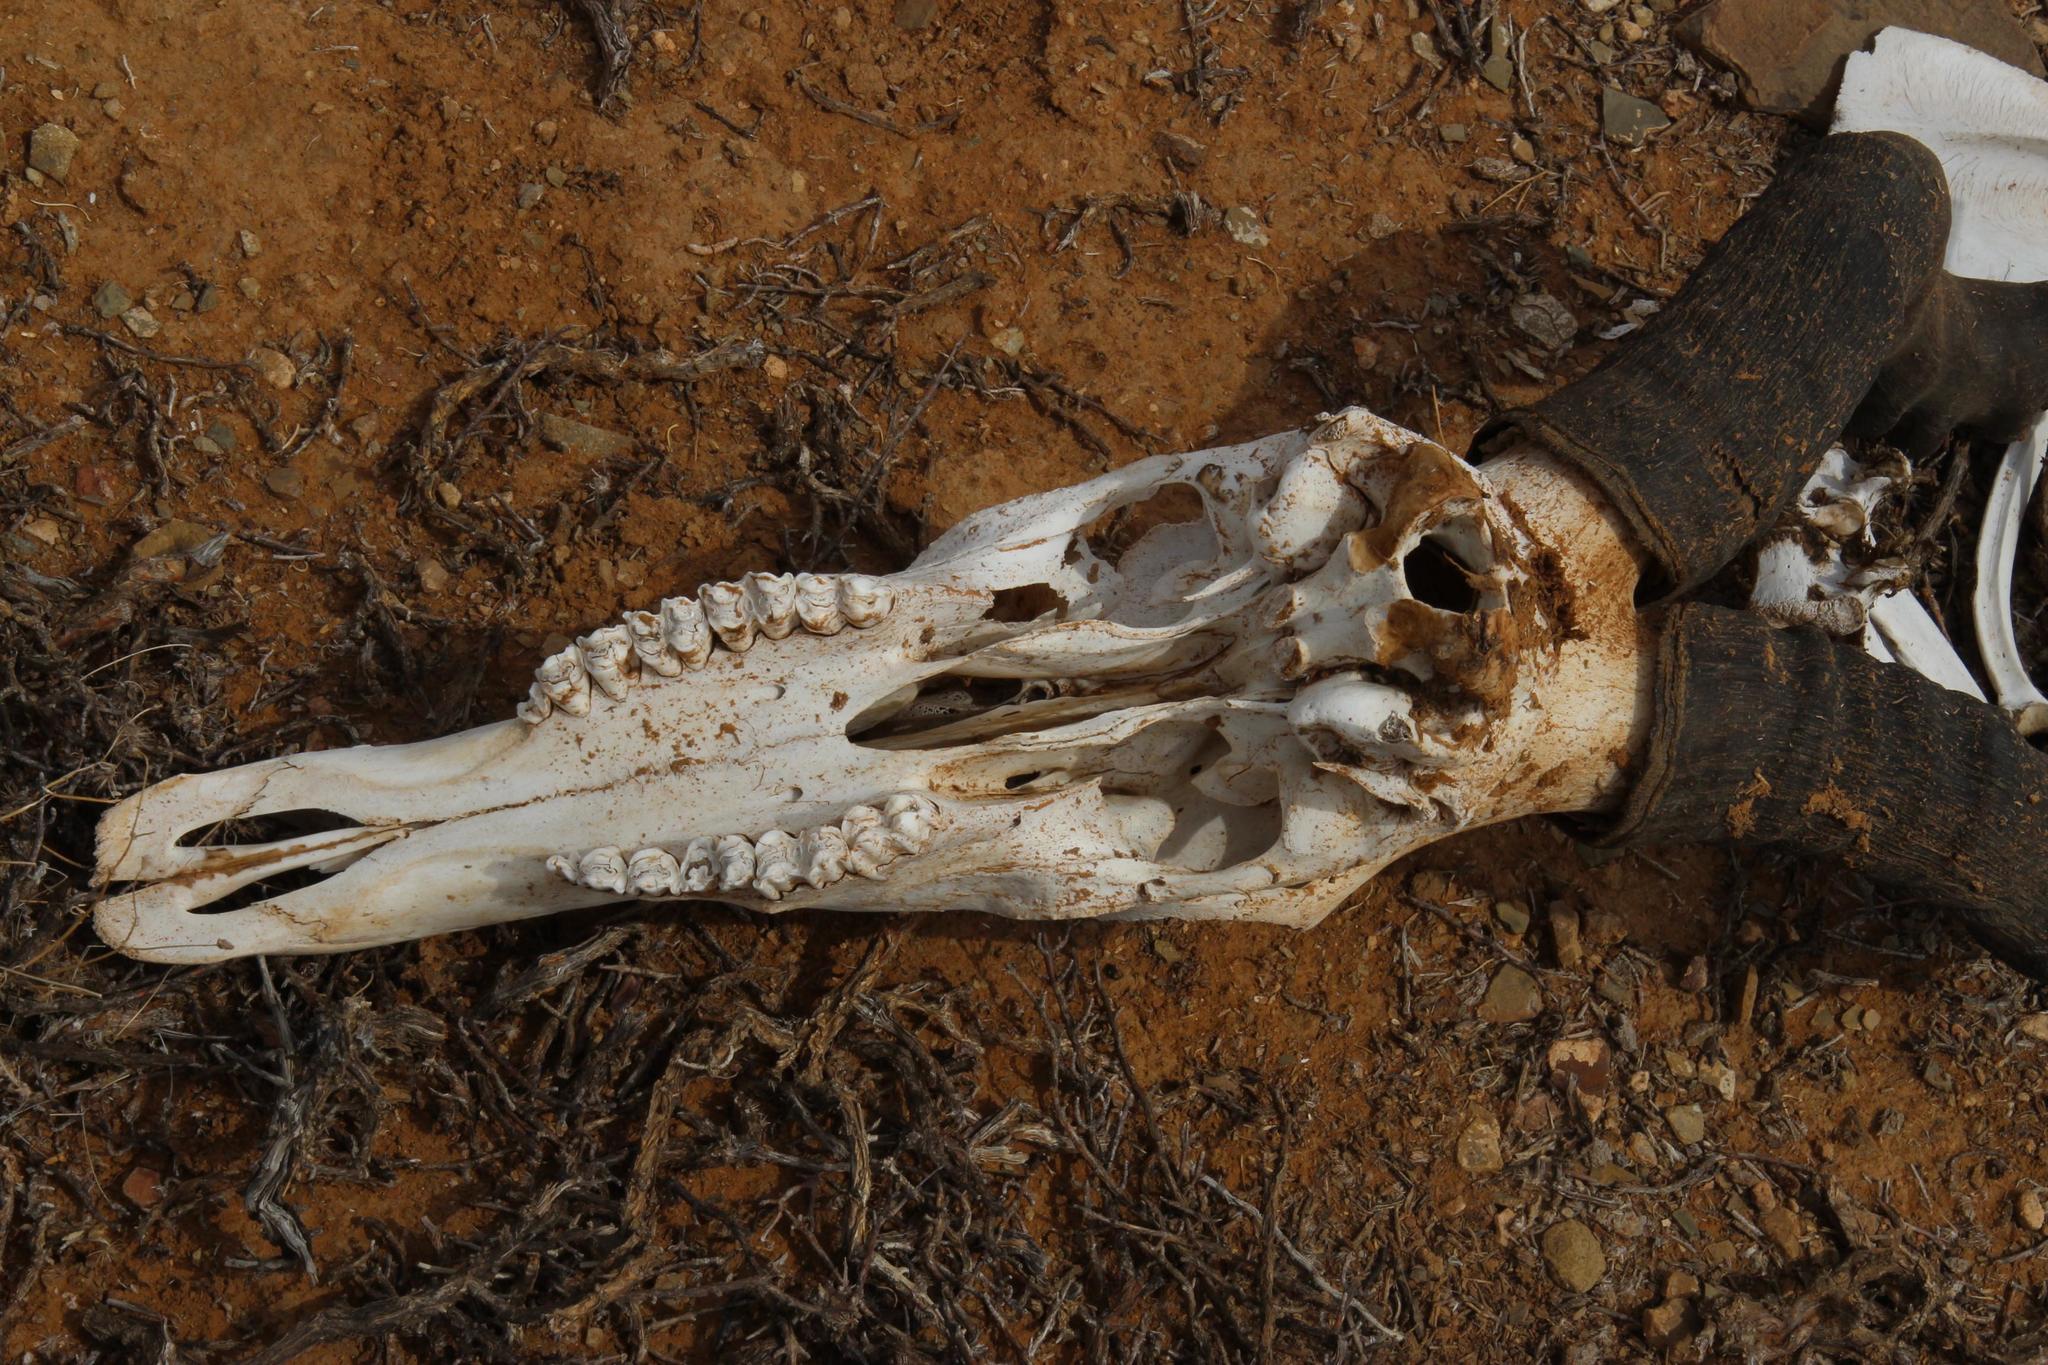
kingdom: Animalia
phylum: Chordata
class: Mammalia
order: Artiodactyla
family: Bovidae
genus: Alcelaphus
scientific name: Alcelaphus caama
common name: Red hartebeest
